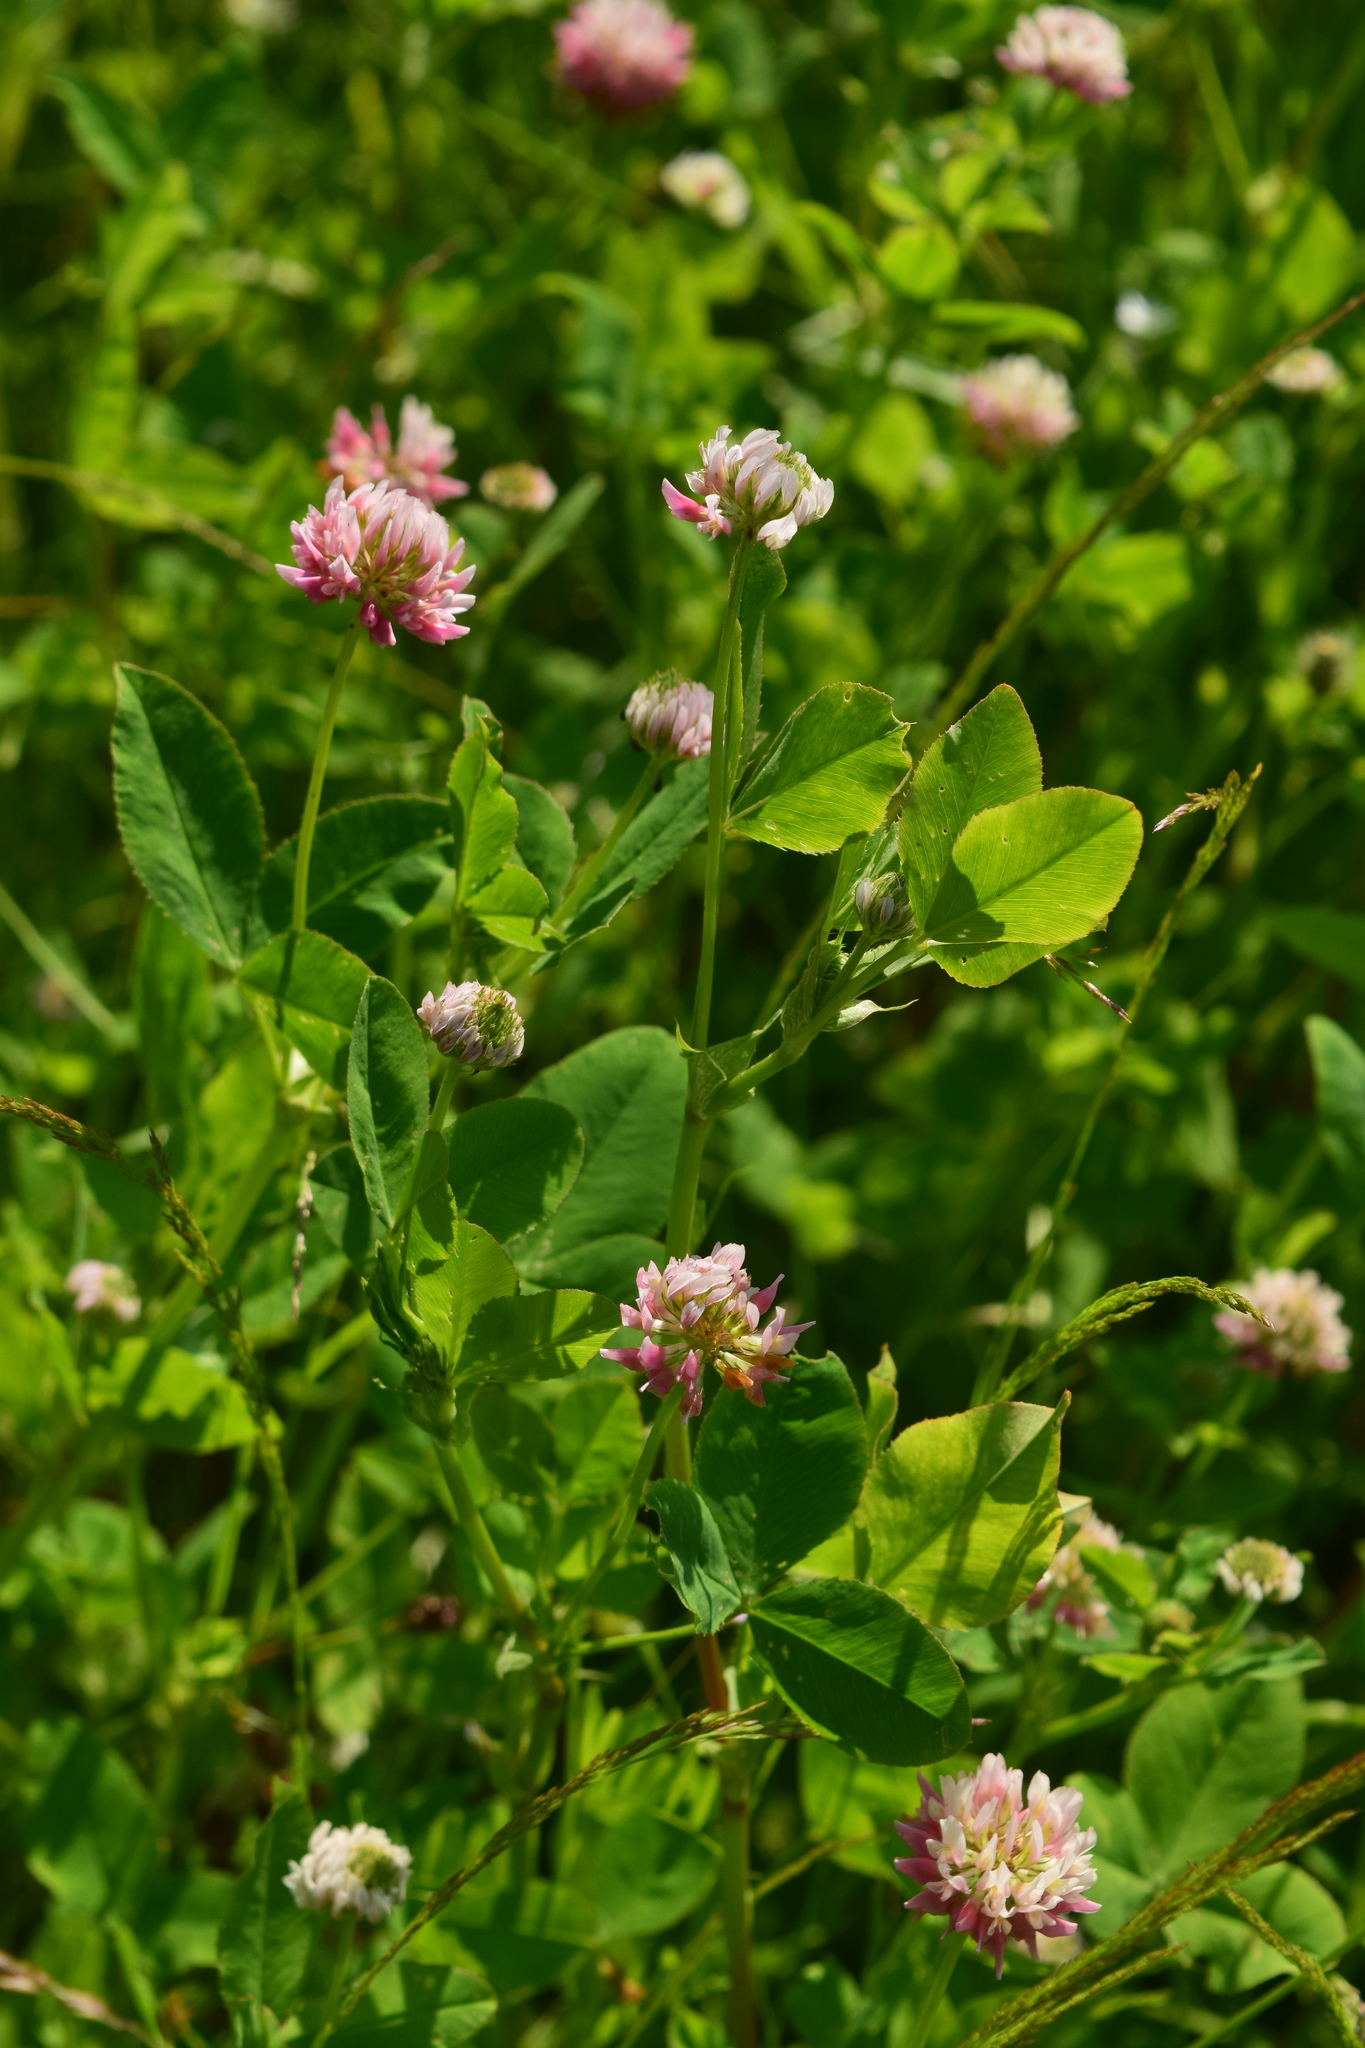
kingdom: Plantae
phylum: Tracheophyta
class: Magnoliopsida
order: Fabales
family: Fabaceae
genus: Trifolium
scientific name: Trifolium hybridum
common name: Alsike clover
